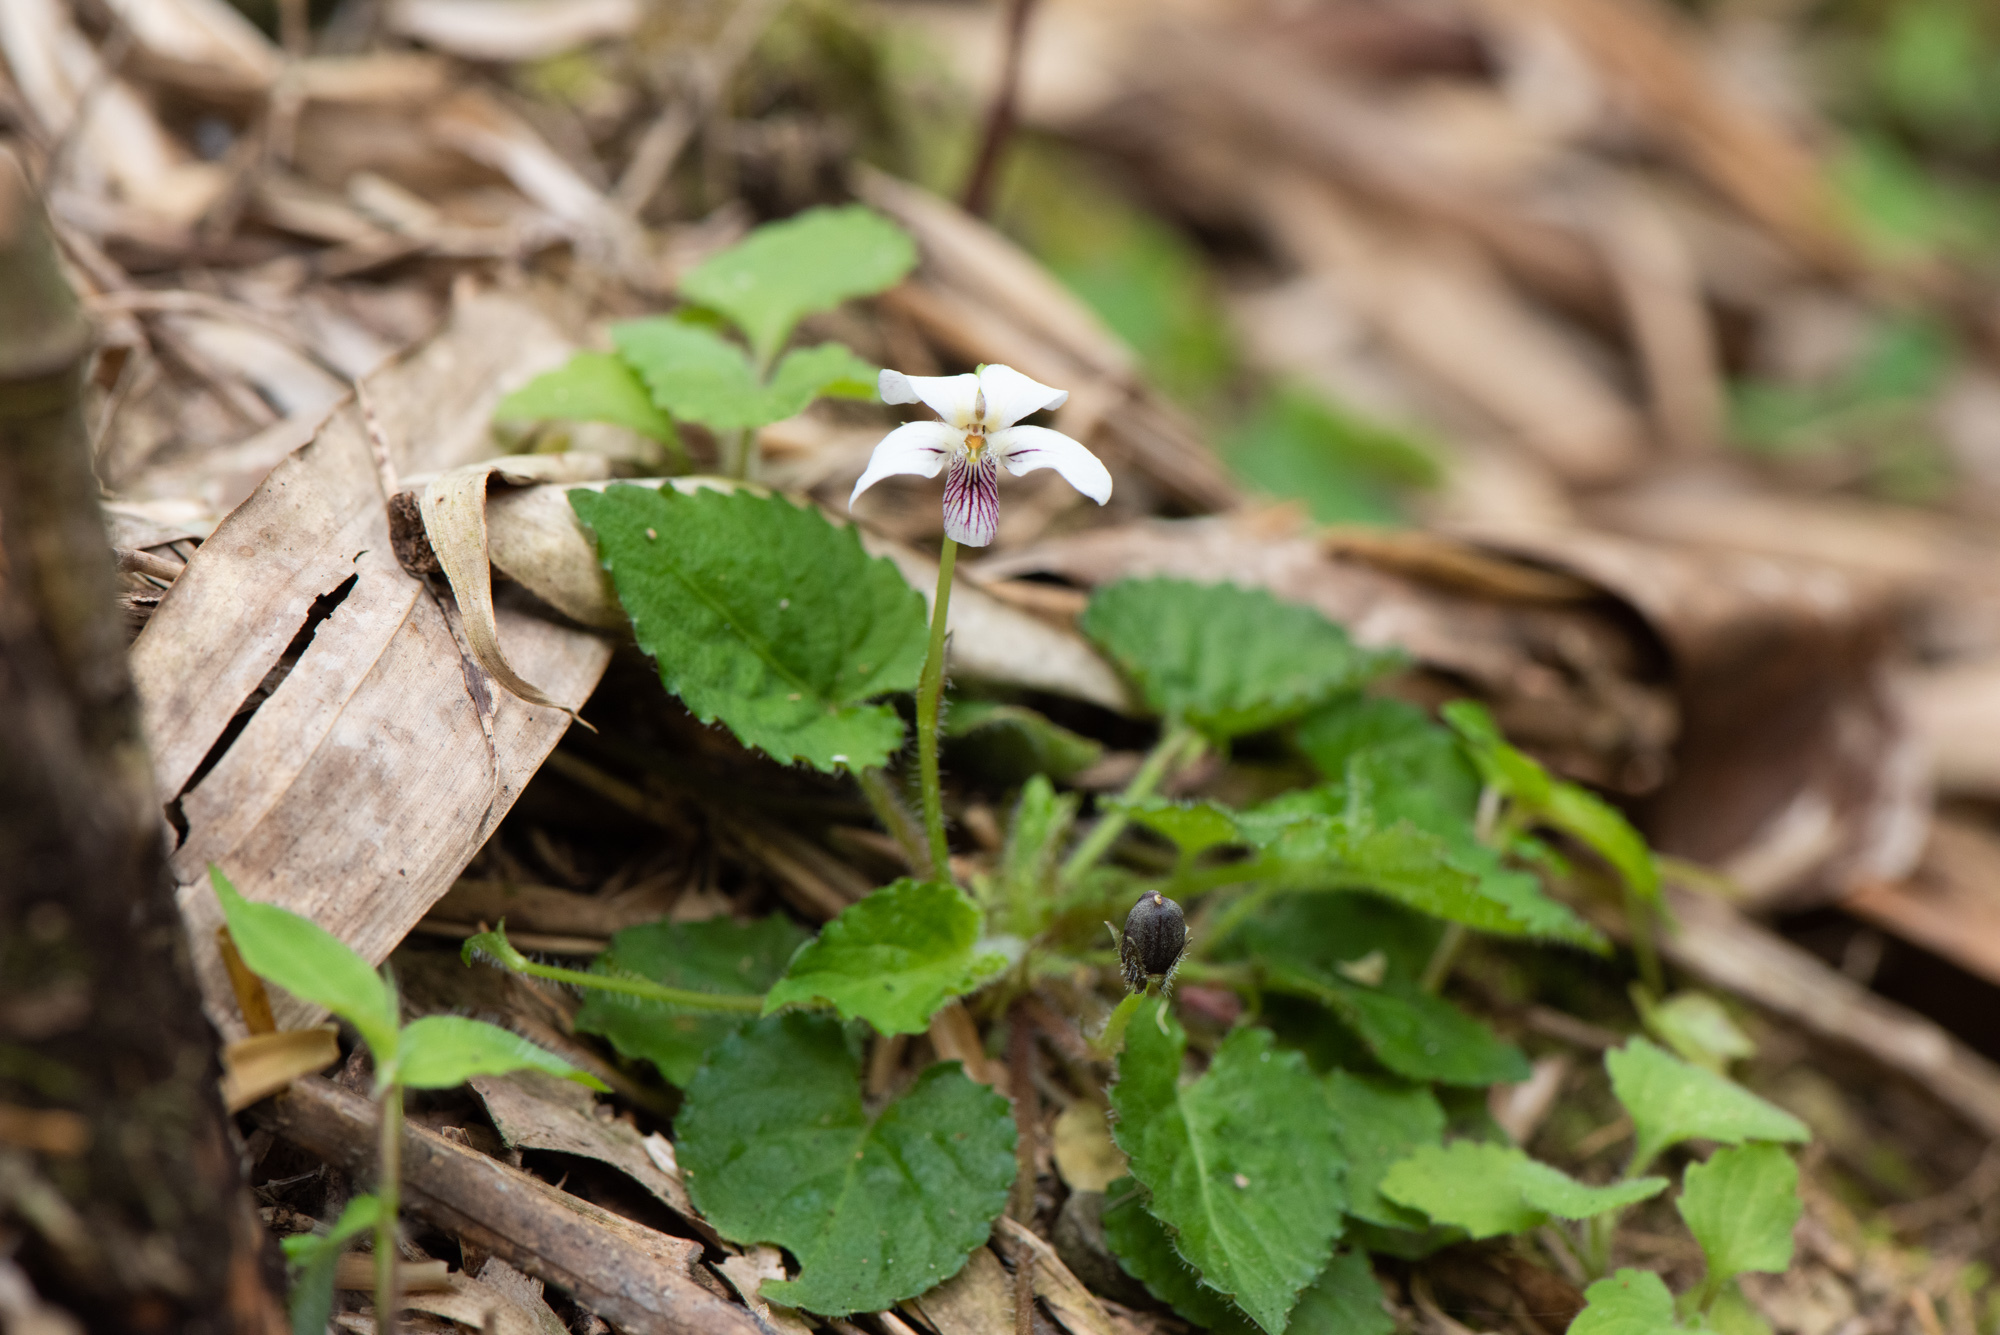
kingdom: Plantae
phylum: Tracheophyta
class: Magnoliopsida
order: Malpighiales
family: Violaceae
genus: Viola
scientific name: Viola adenothrix
